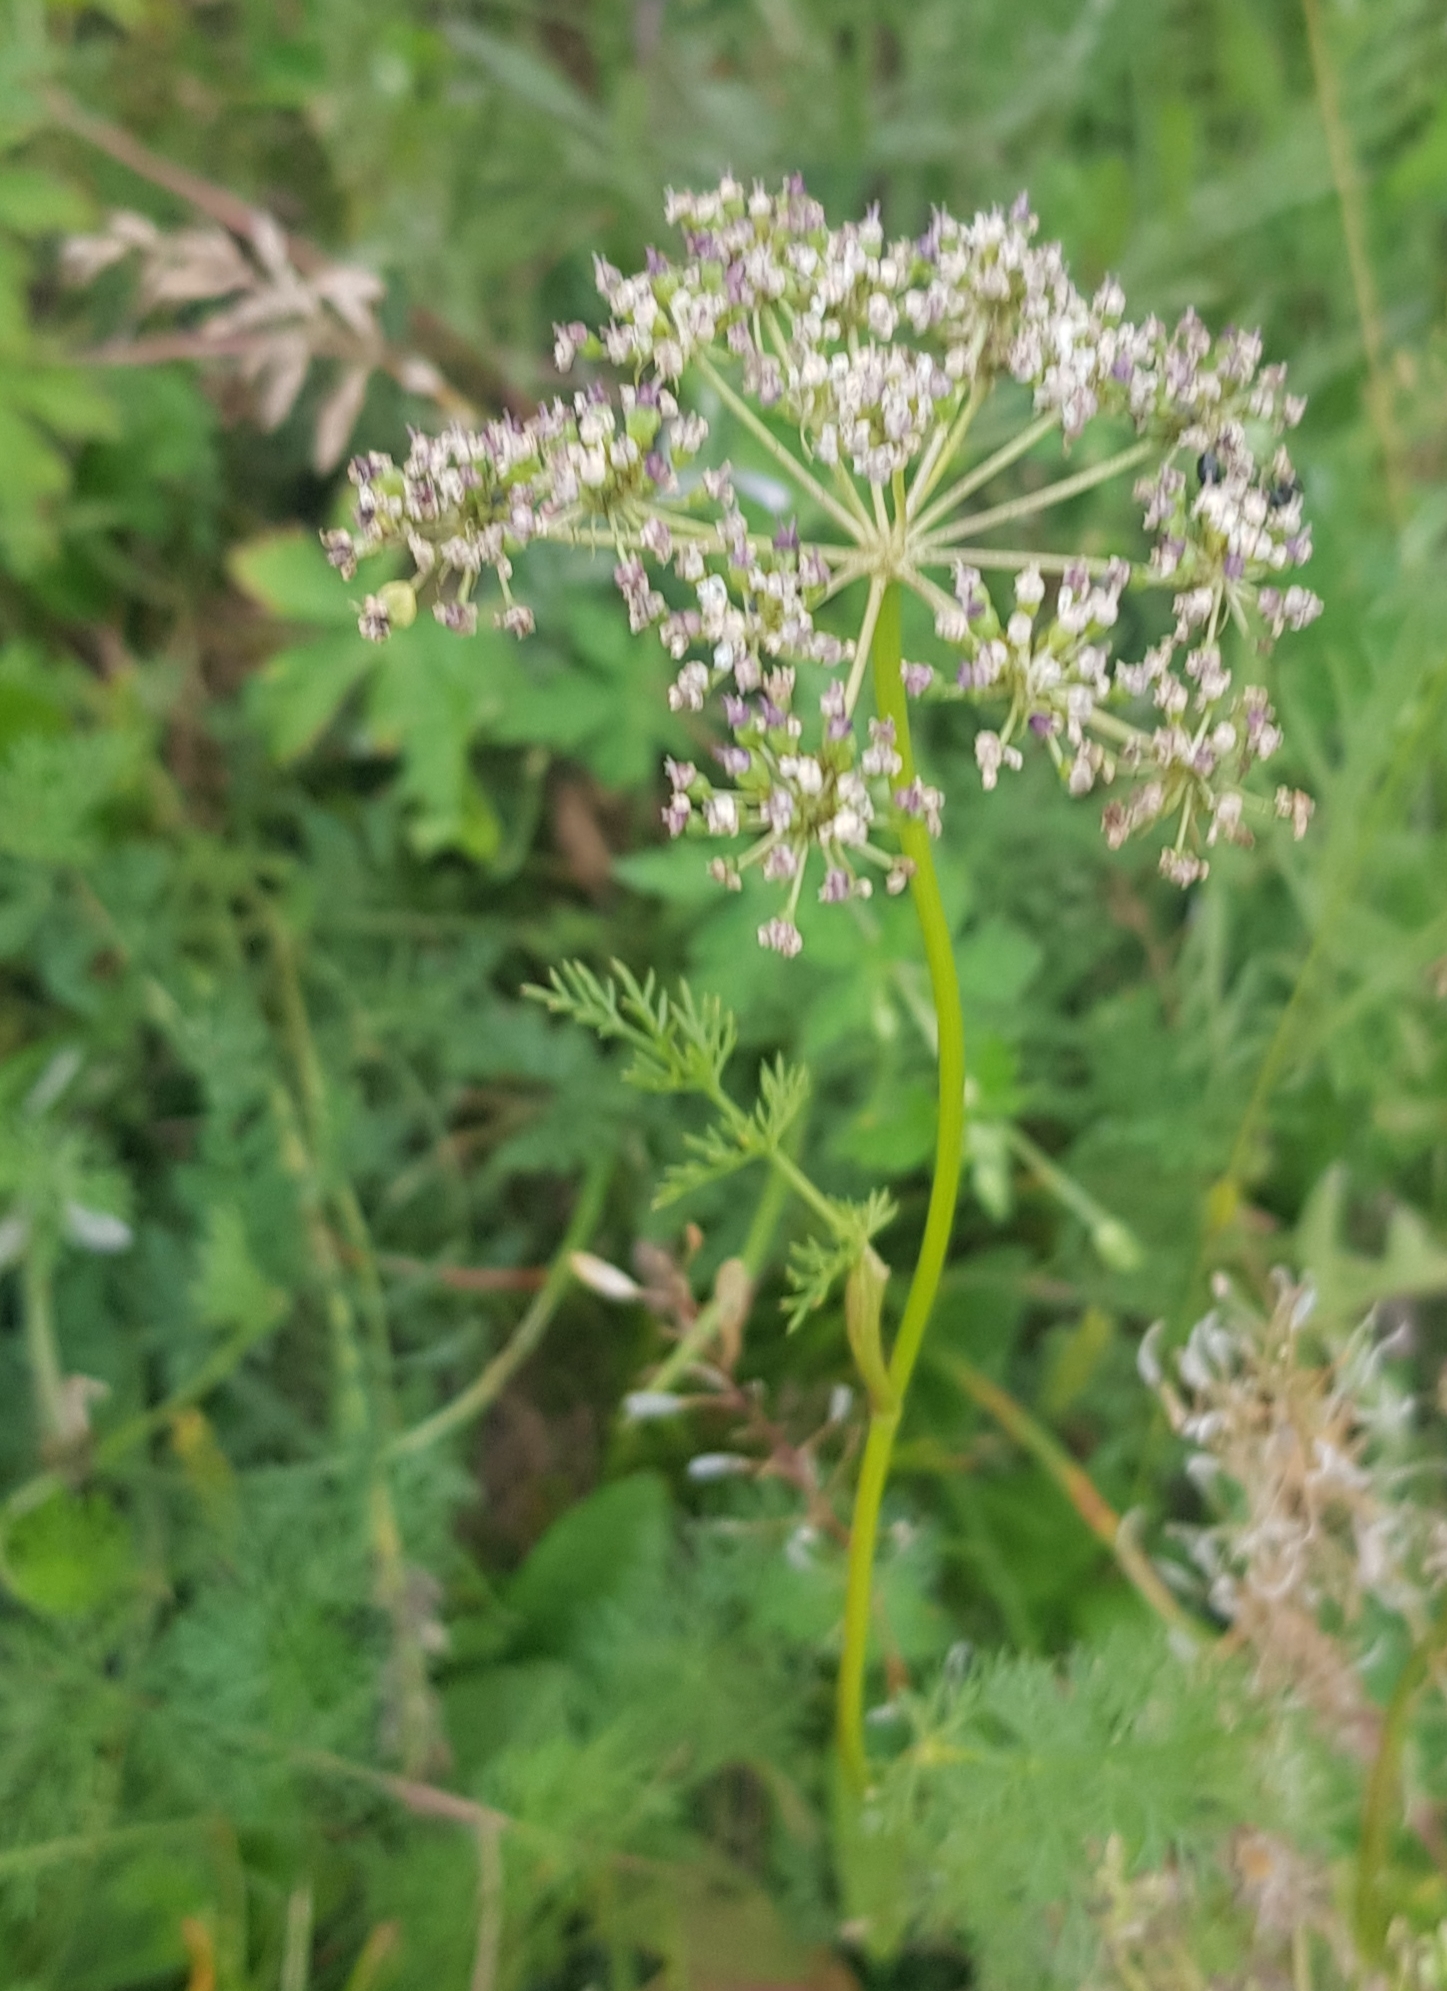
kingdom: Plantae
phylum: Tracheophyta
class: Magnoliopsida
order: Apiales
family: Apiaceae
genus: Carum
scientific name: Carum buriaticum
